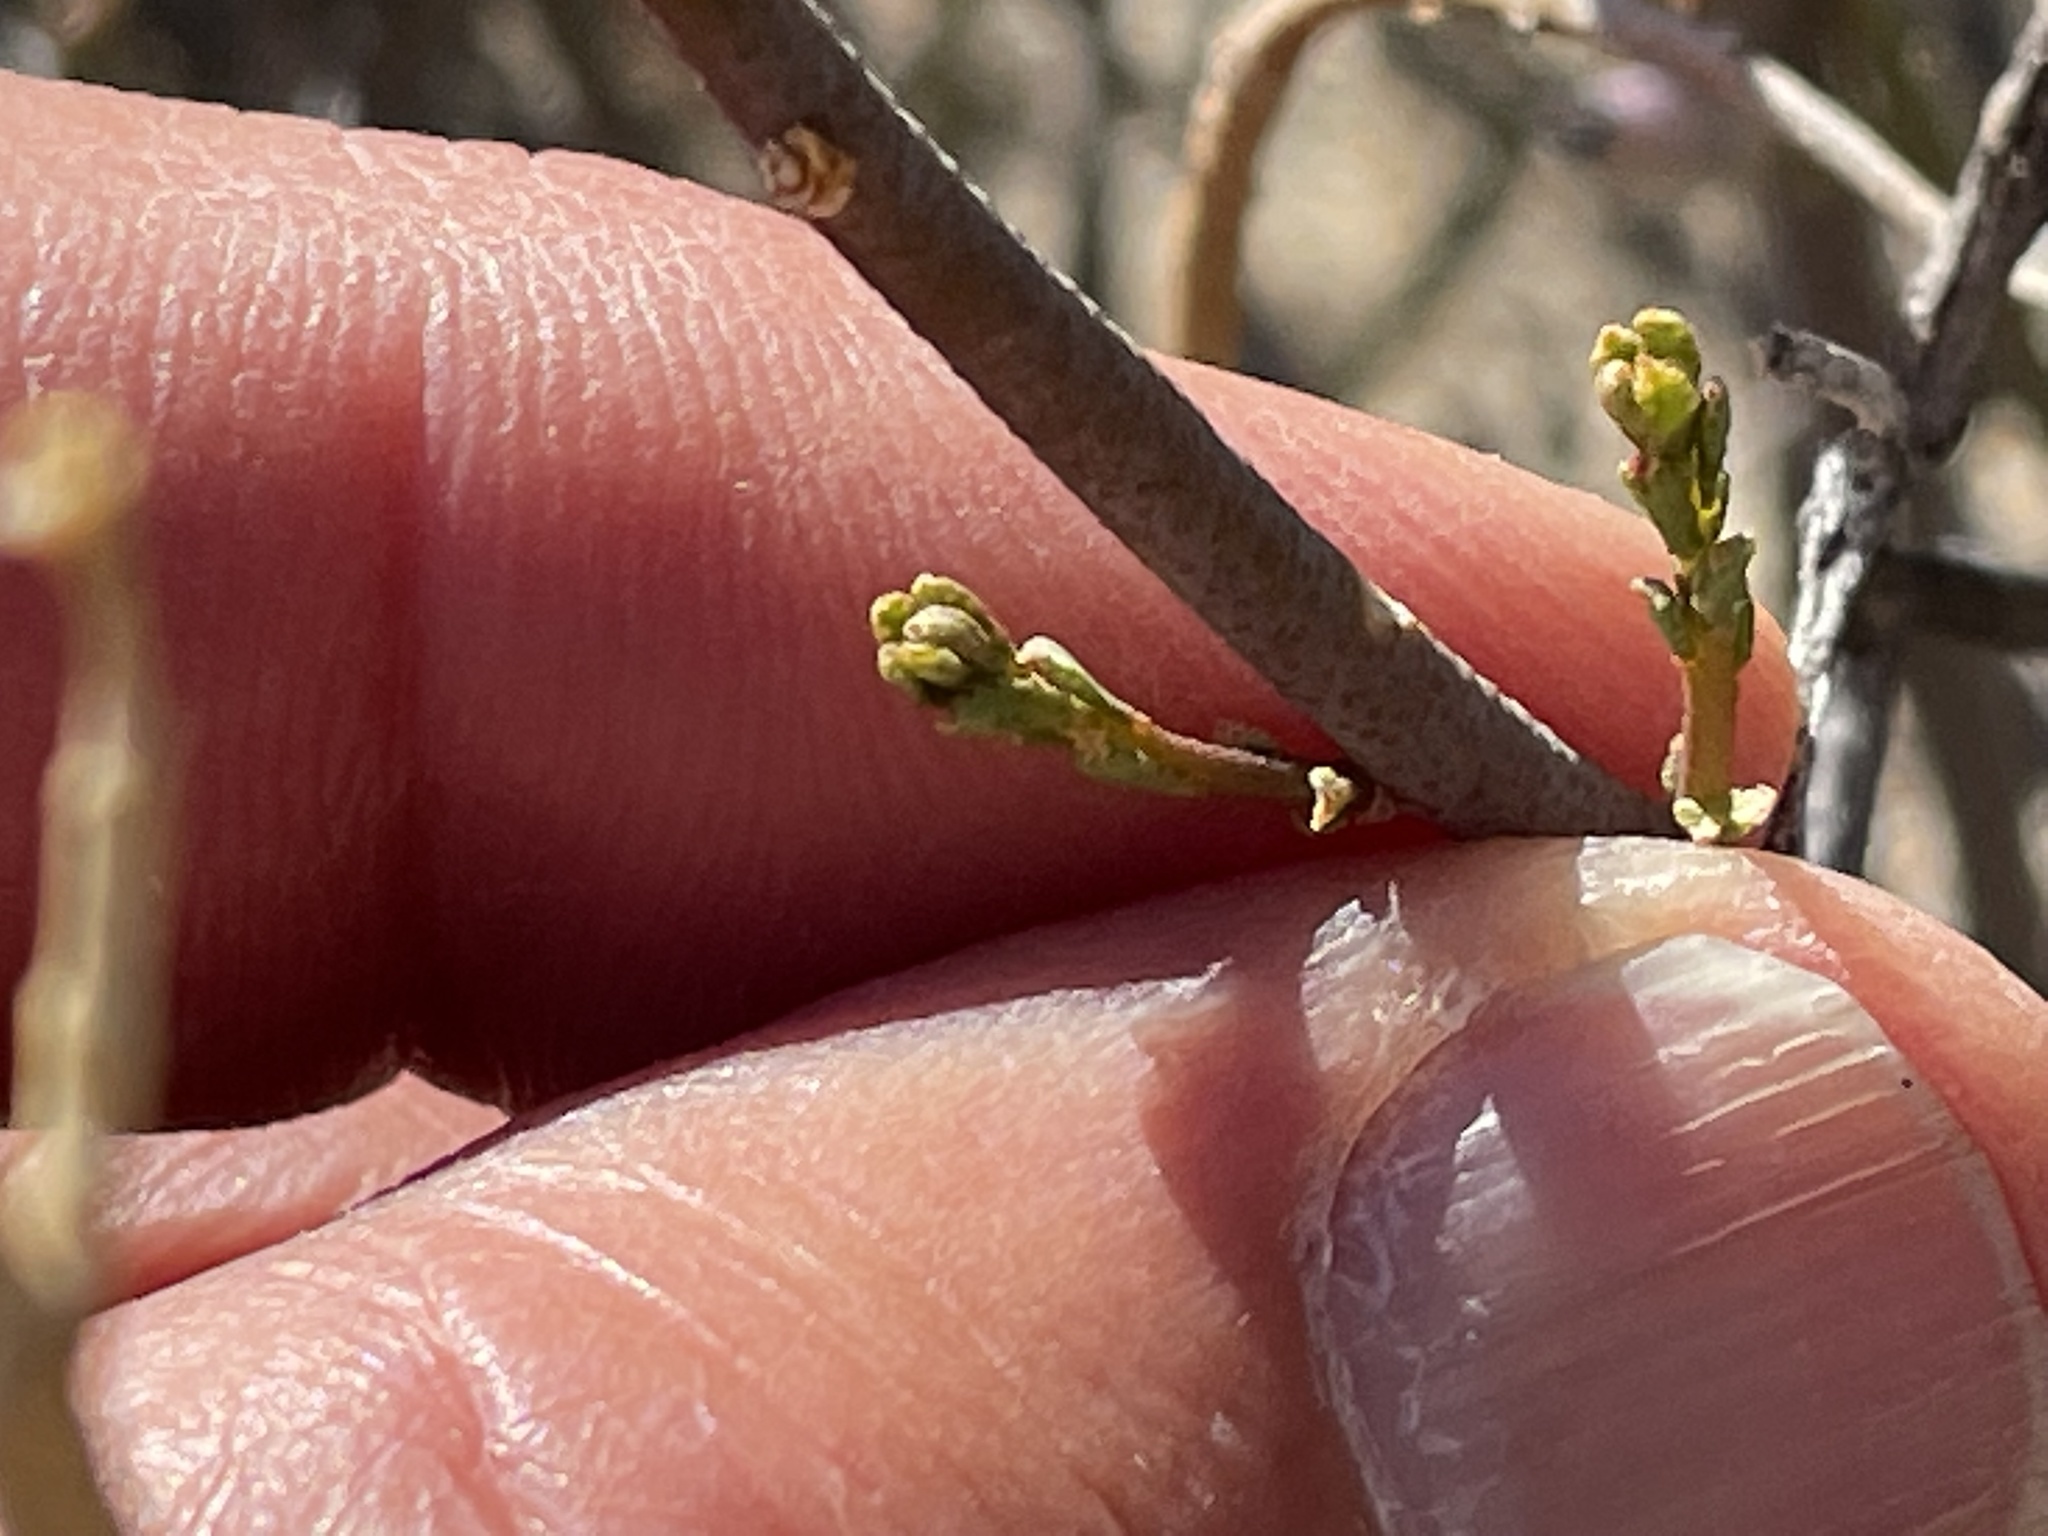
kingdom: Plantae
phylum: Tracheophyta
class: Magnoliopsida
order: Sapindales
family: Rutaceae
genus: Thamnosma
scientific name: Thamnosma montana
